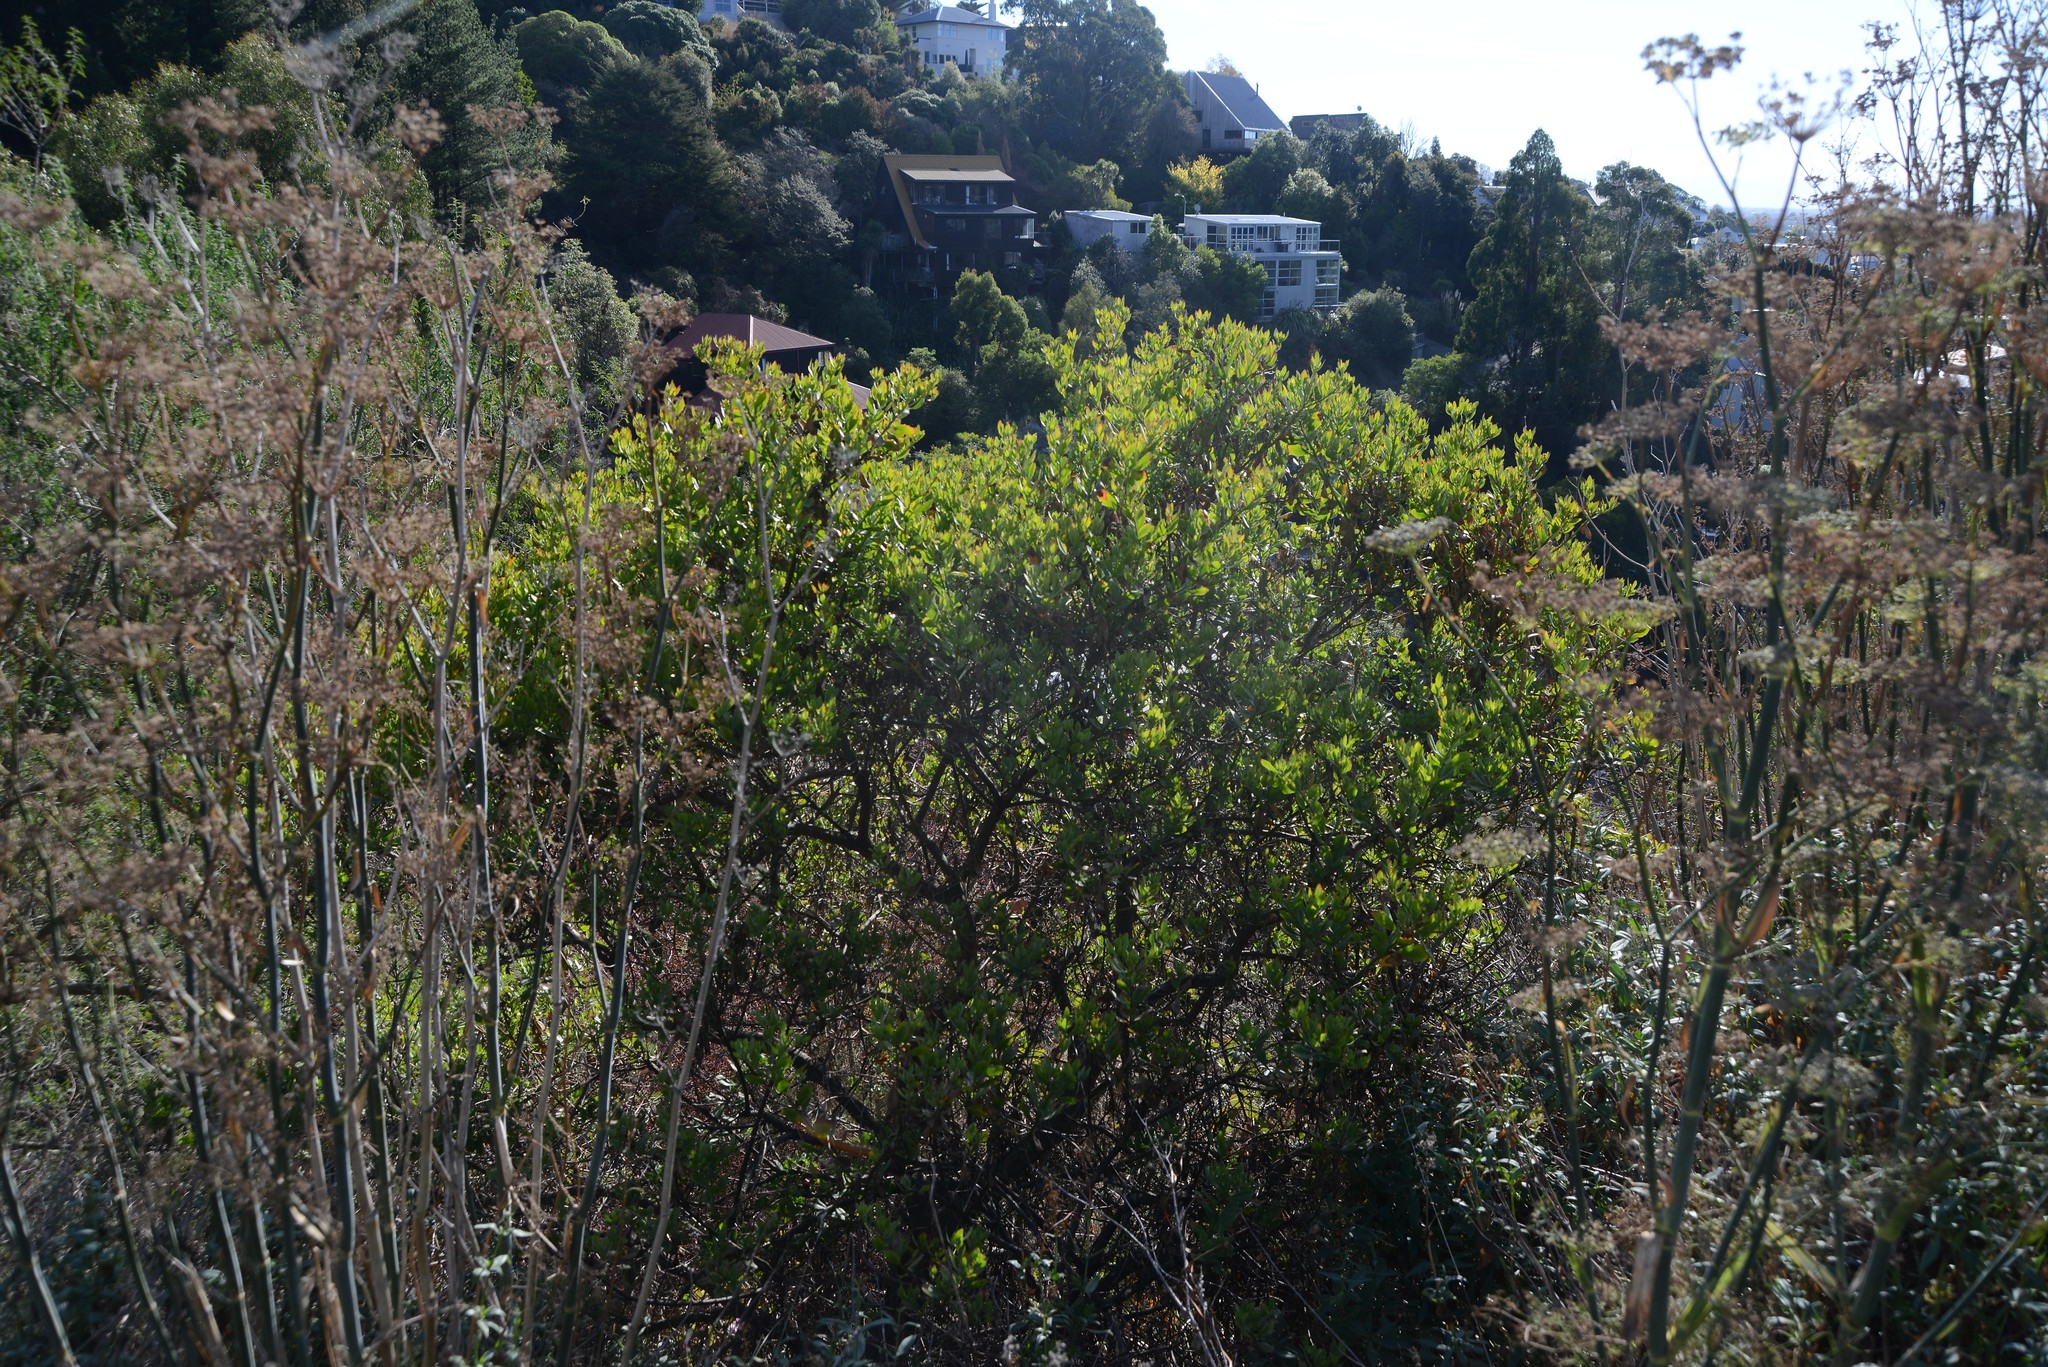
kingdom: Plantae
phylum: Tracheophyta
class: Magnoliopsida
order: Asterales
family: Asteraceae
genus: Osteospermum
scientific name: Osteospermum moniliferum
